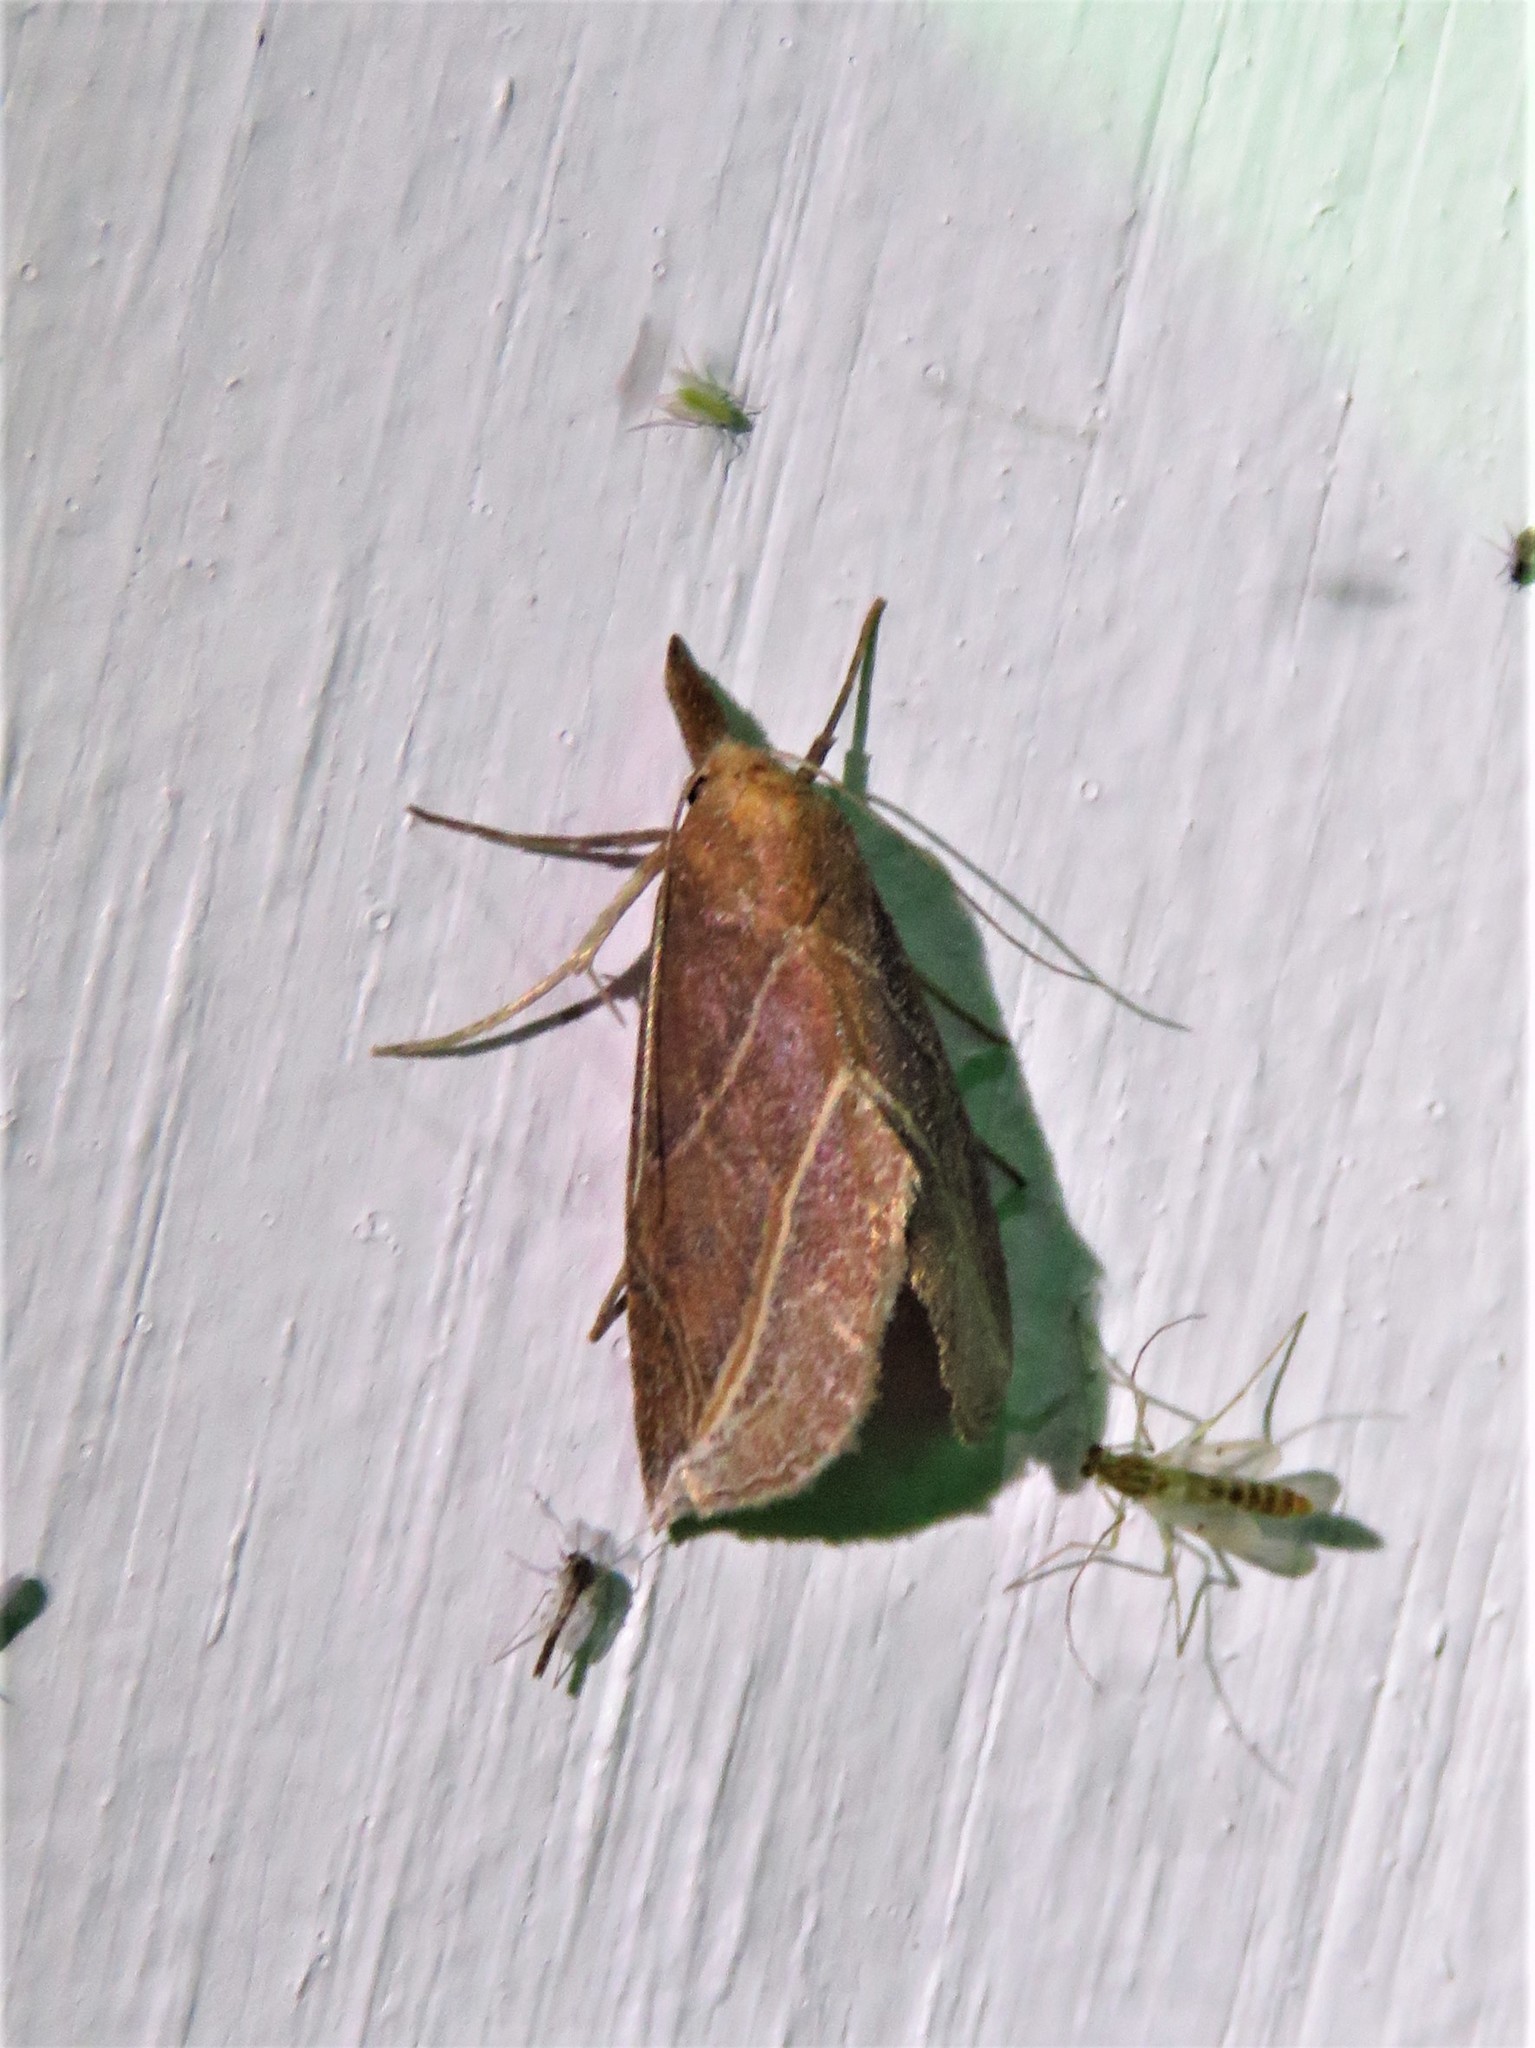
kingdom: Animalia
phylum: Arthropoda
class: Insecta
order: Lepidoptera
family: Erebidae
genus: Phyprosopus
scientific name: Phyprosopus callitrichoides
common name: Curved-lined owlet
